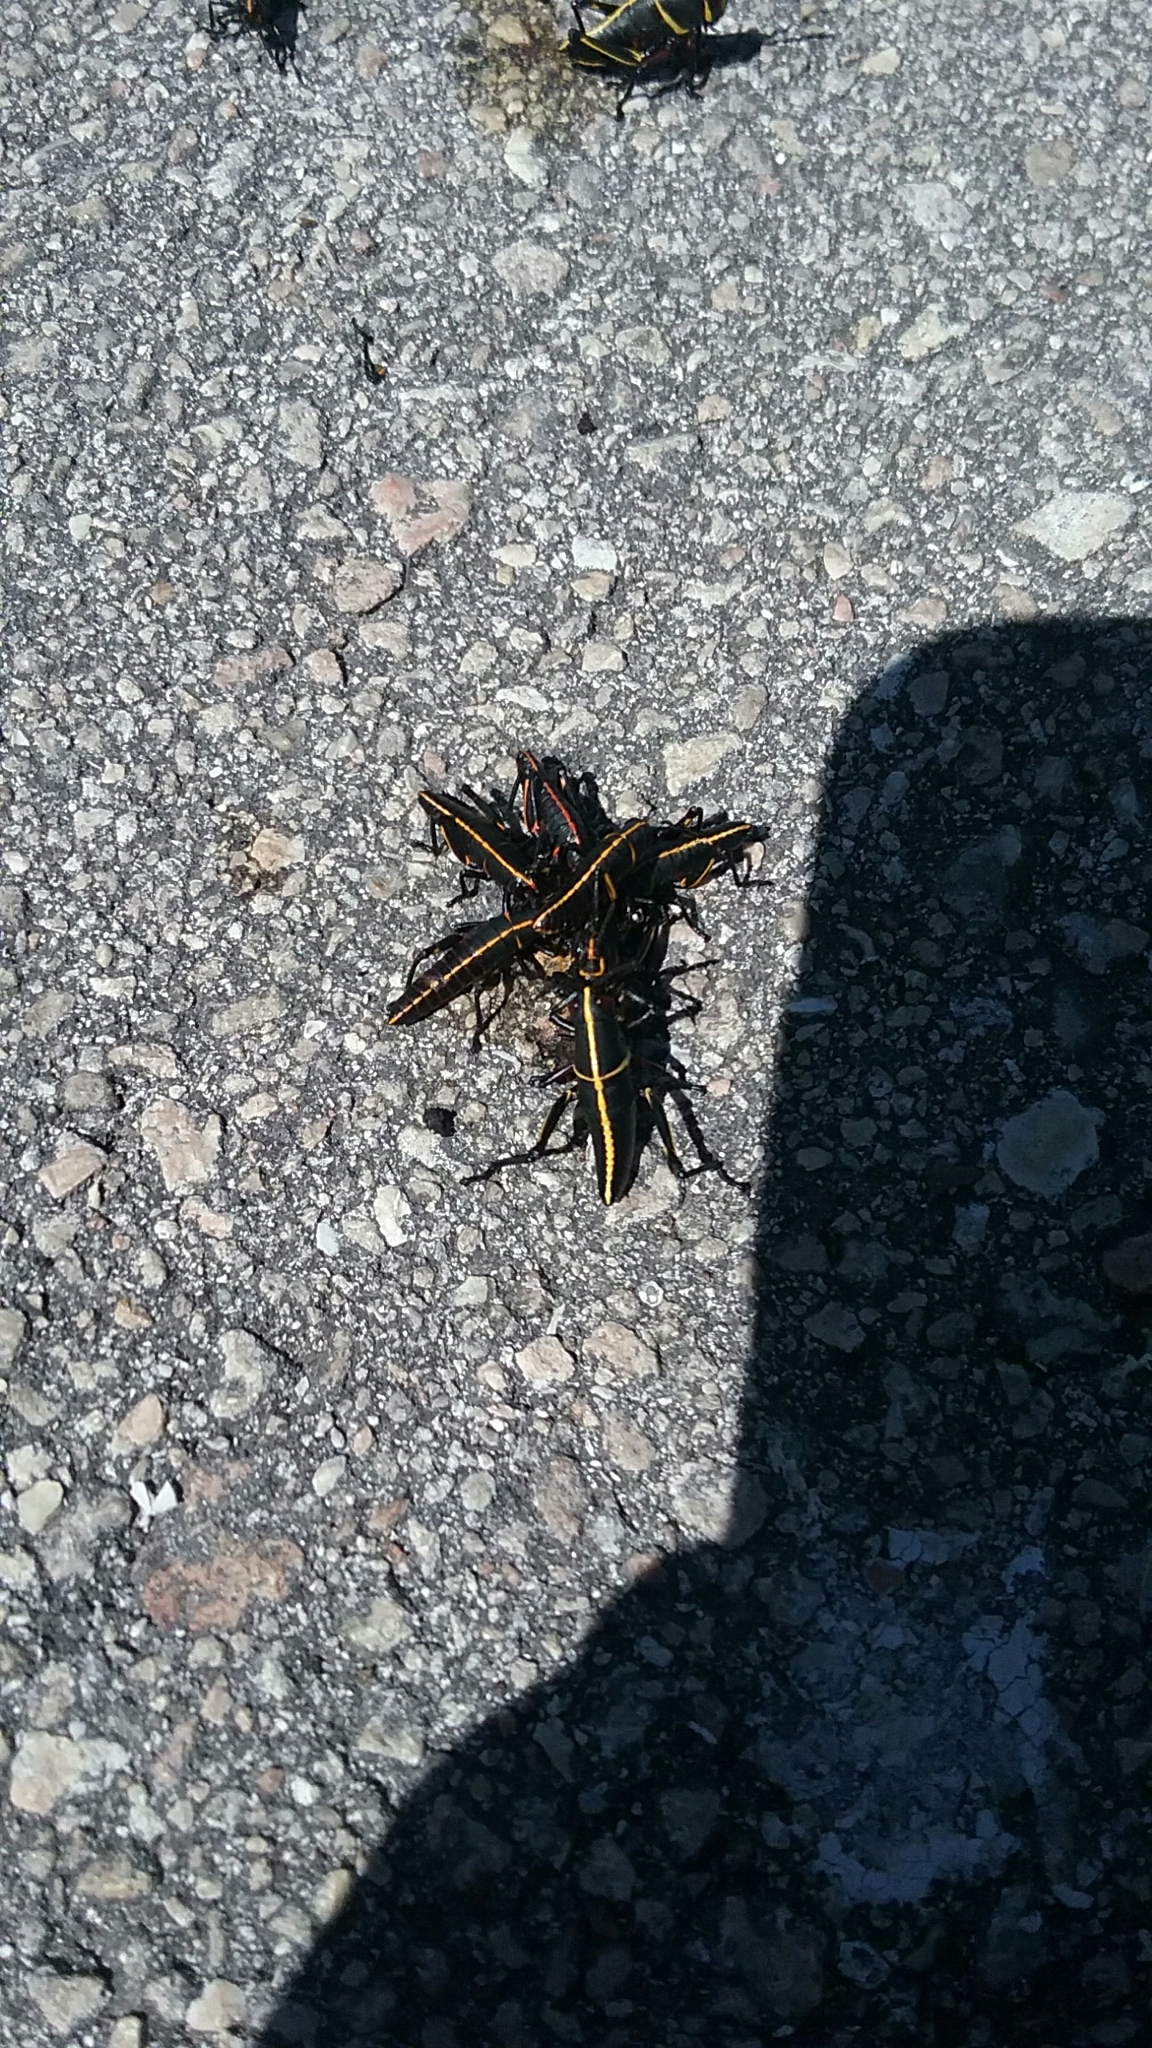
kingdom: Animalia
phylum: Arthropoda
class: Insecta
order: Orthoptera
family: Romaleidae
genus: Romalea
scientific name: Romalea microptera
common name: Eastern lubber grasshopper
